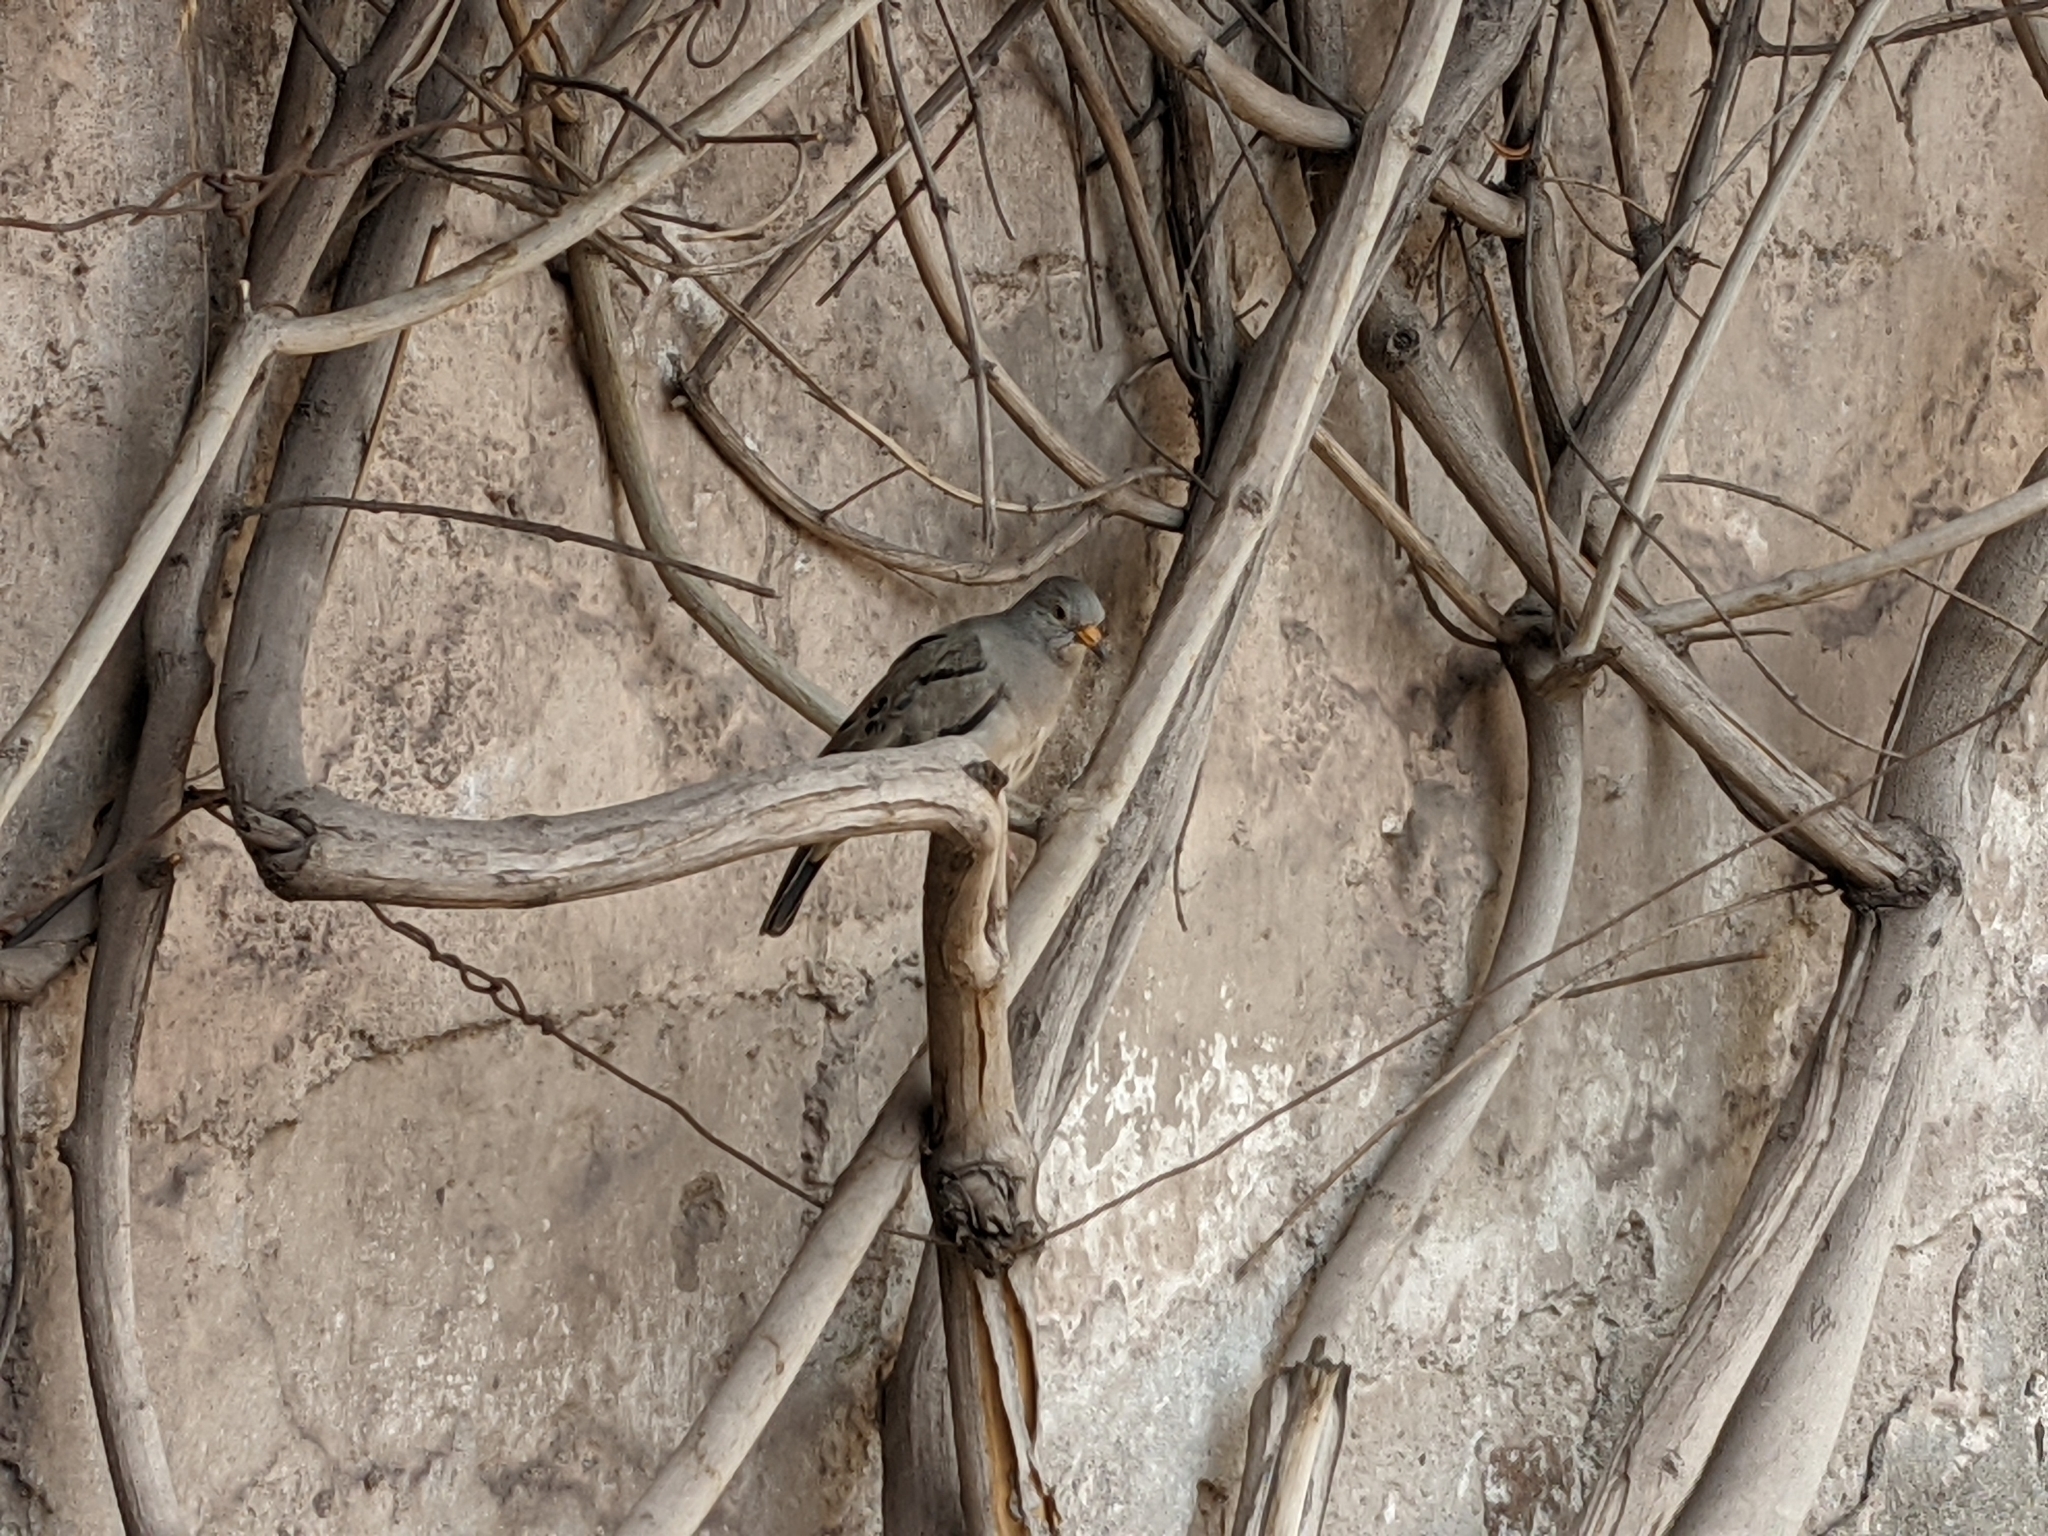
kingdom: Animalia
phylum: Chordata
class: Aves
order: Columbiformes
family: Columbidae
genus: Columbina
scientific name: Columbina cruziana
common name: Croaking ground dove
